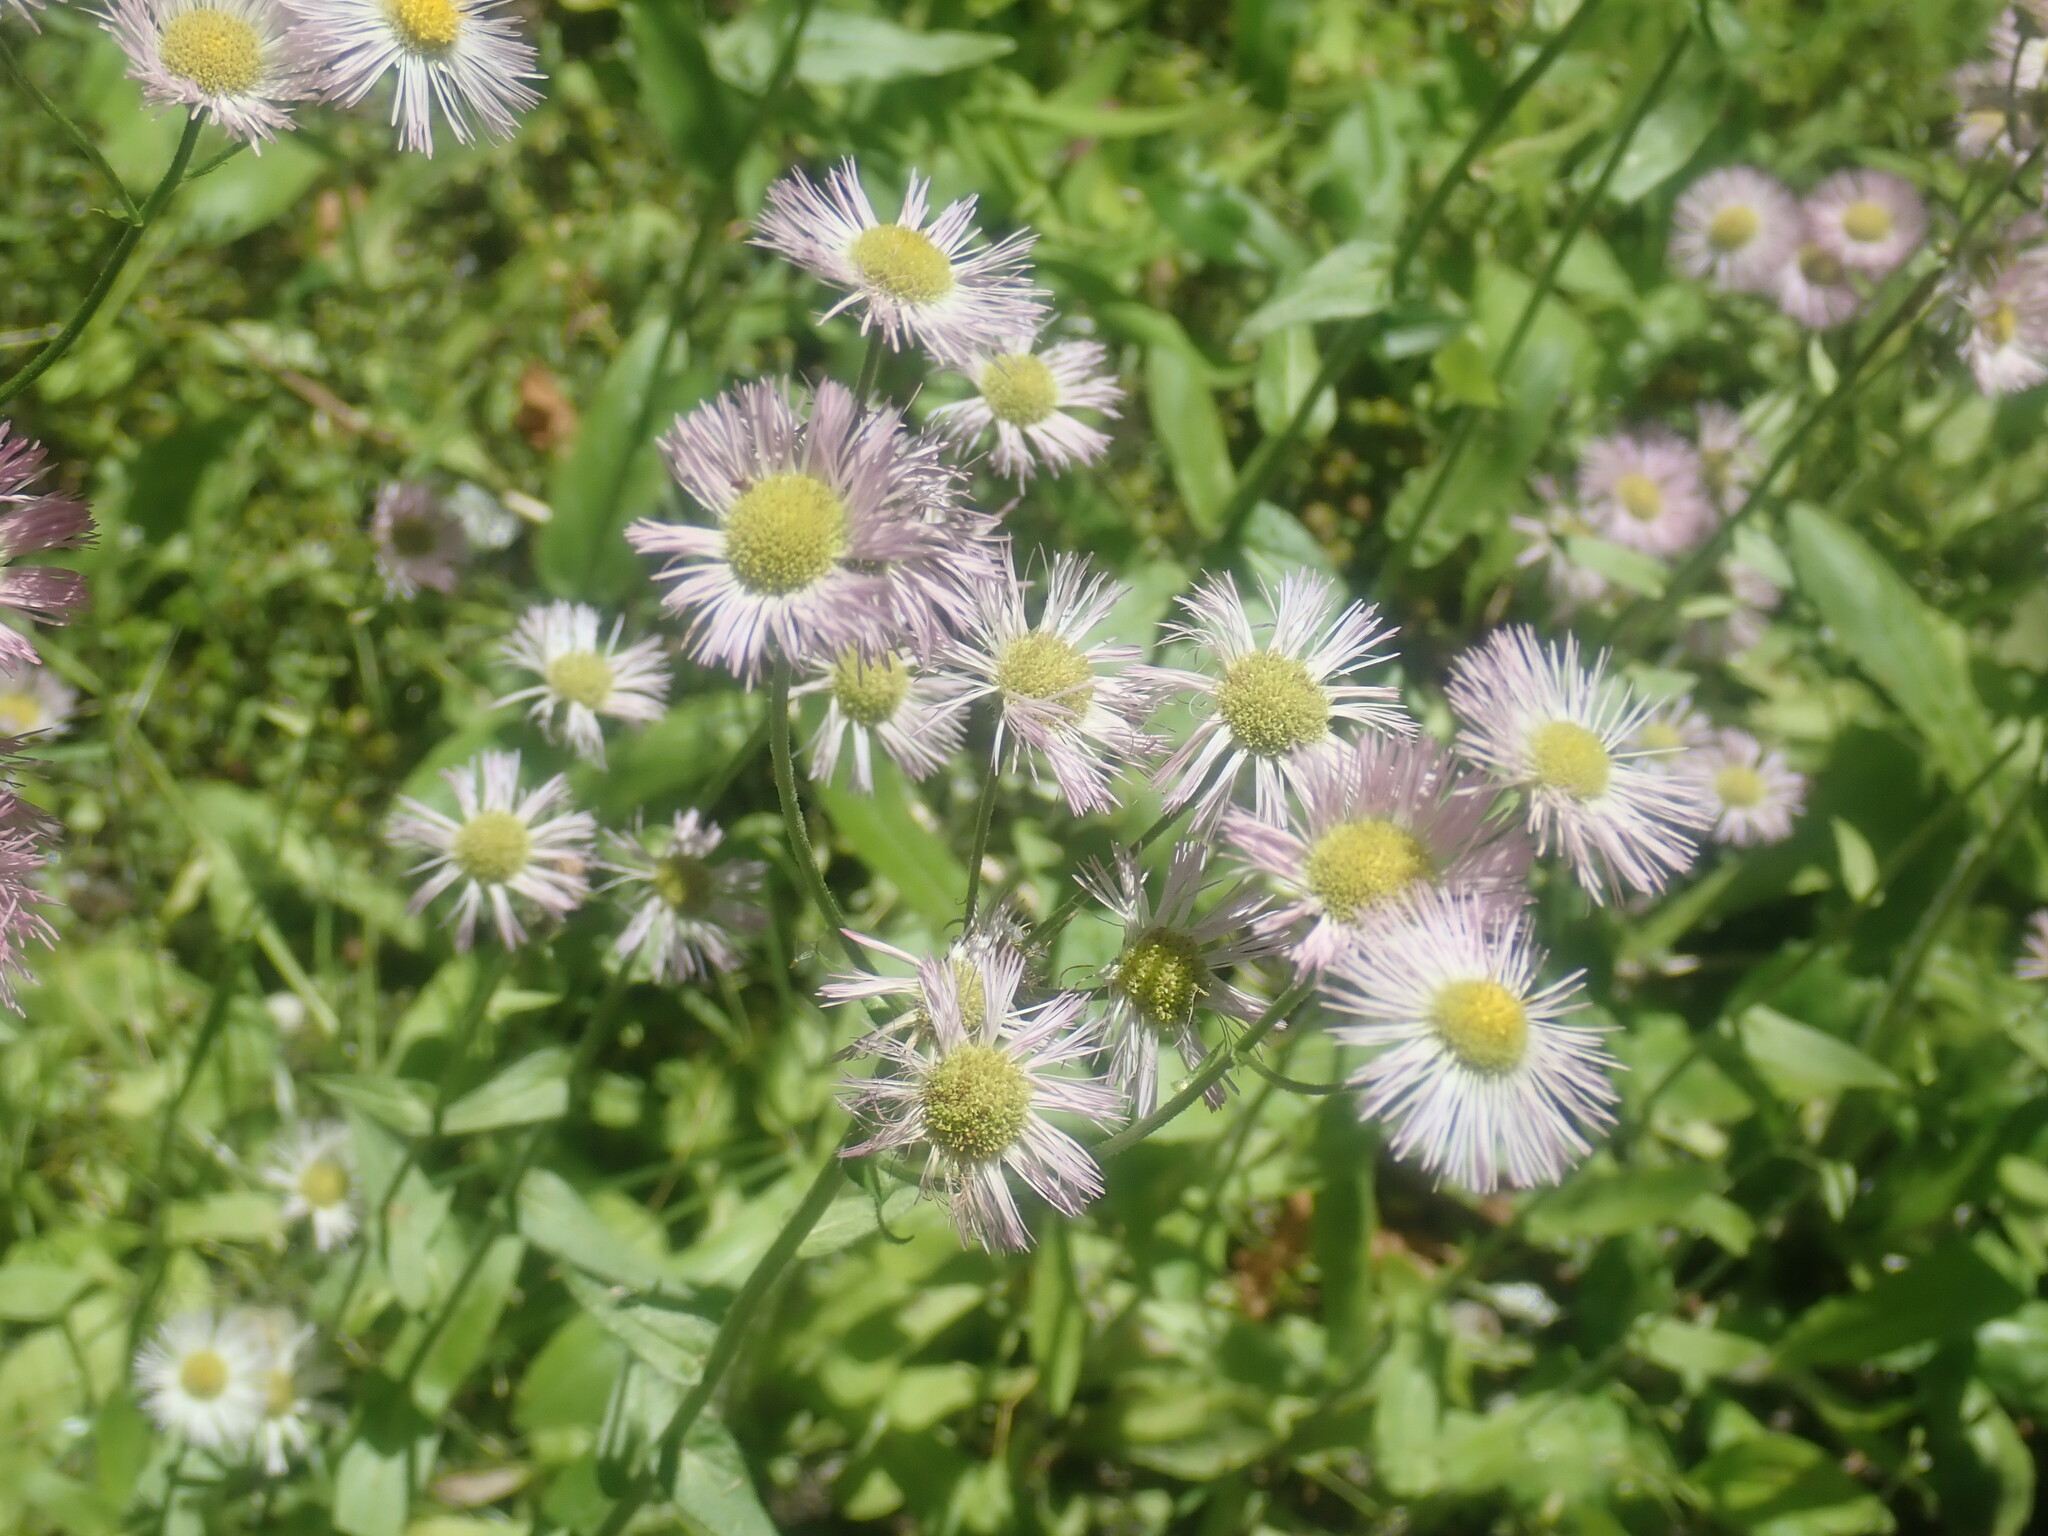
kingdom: Plantae
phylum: Tracheophyta
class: Magnoliopsida
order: Asterales
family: Asteraceae
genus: Erigeron
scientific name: Erigeron philadelphicus
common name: Robin's-plantain
